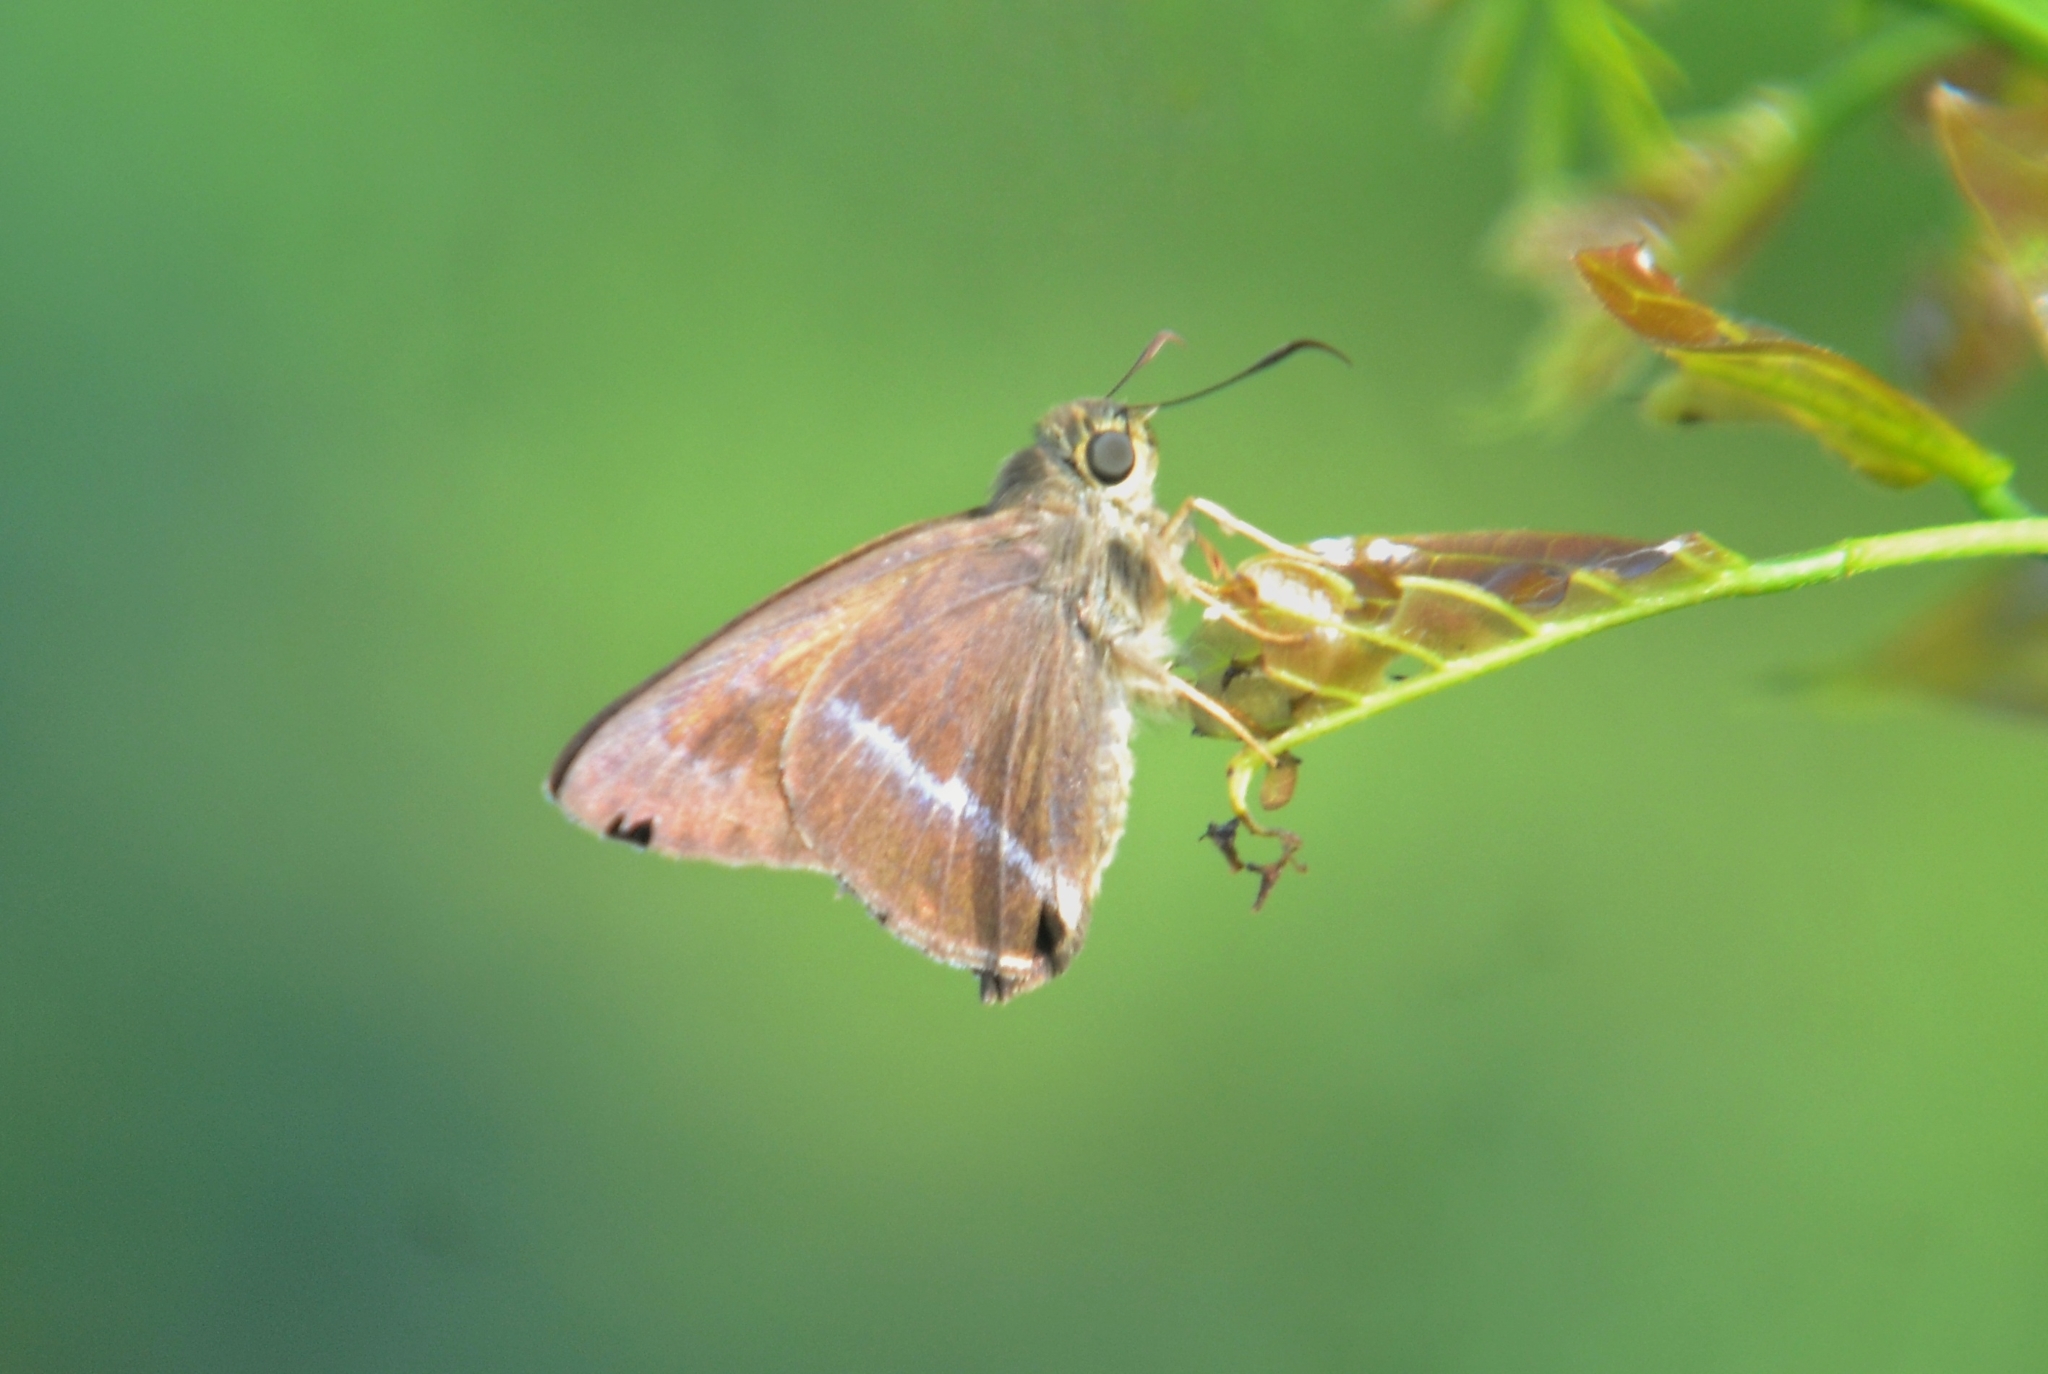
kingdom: Animalia
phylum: Arthropoda
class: Insecta
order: Lepidoptera
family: Hesperiidae
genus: Hasora
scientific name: Hasora chromus
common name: Common banded awl
